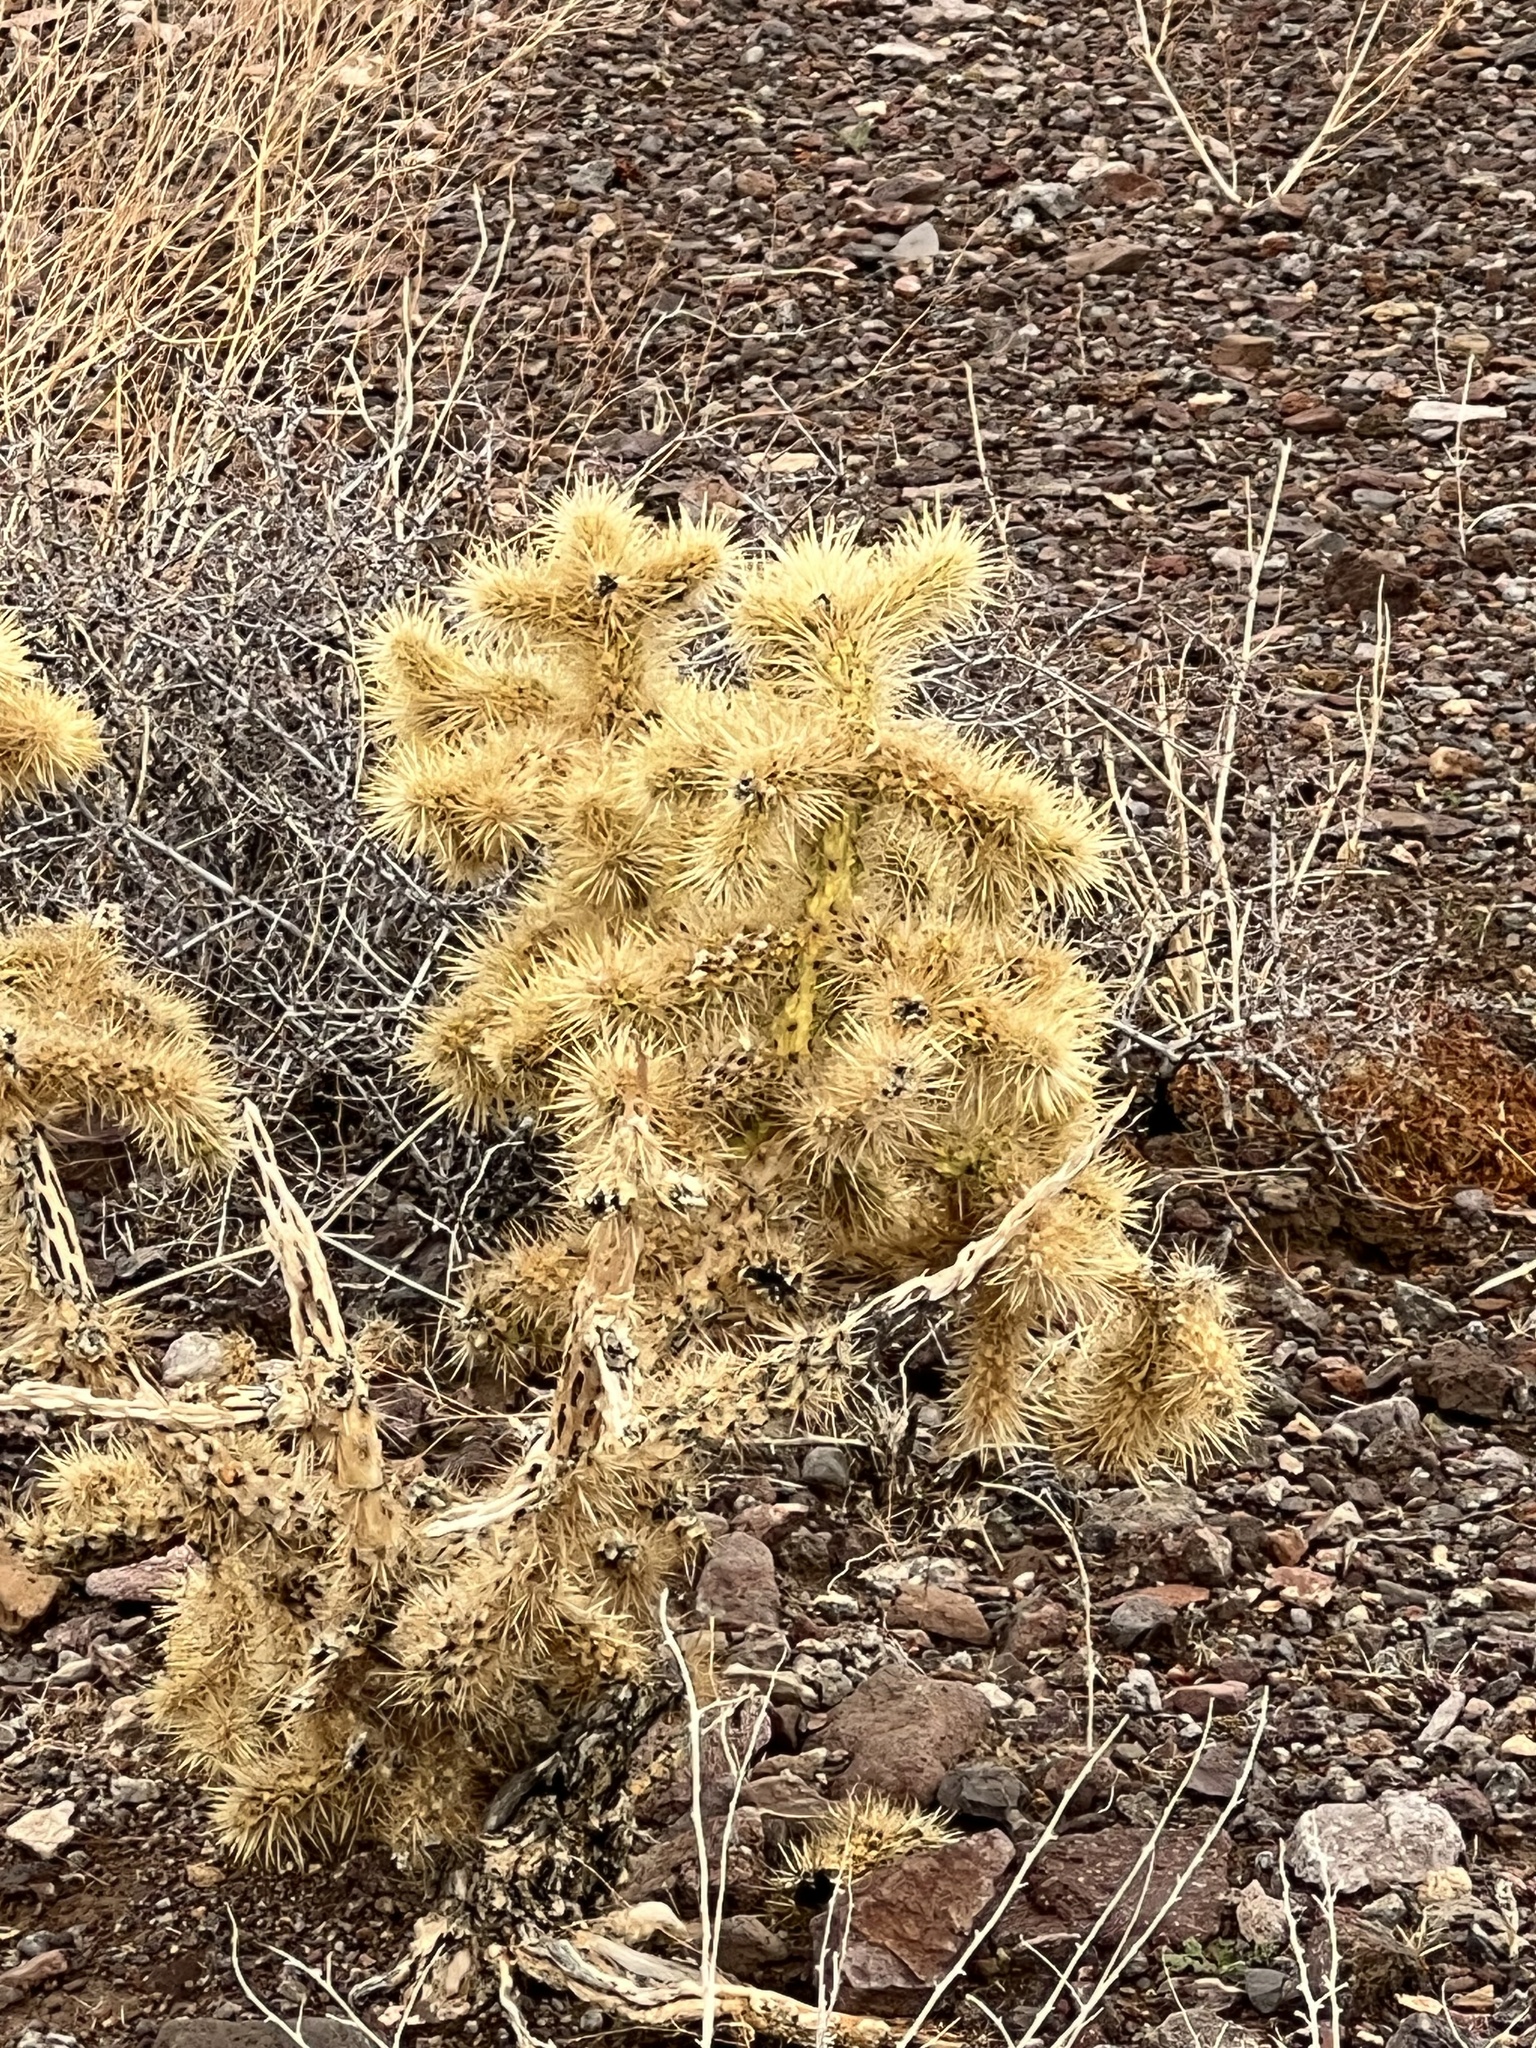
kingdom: Plantae
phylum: Tracheophyta
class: Magnoliopsida
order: Caryophyllales
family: Cactaceae
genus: Cylindropuntia
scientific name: Cylindropuntia echinocarpa
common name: Ground cholla
